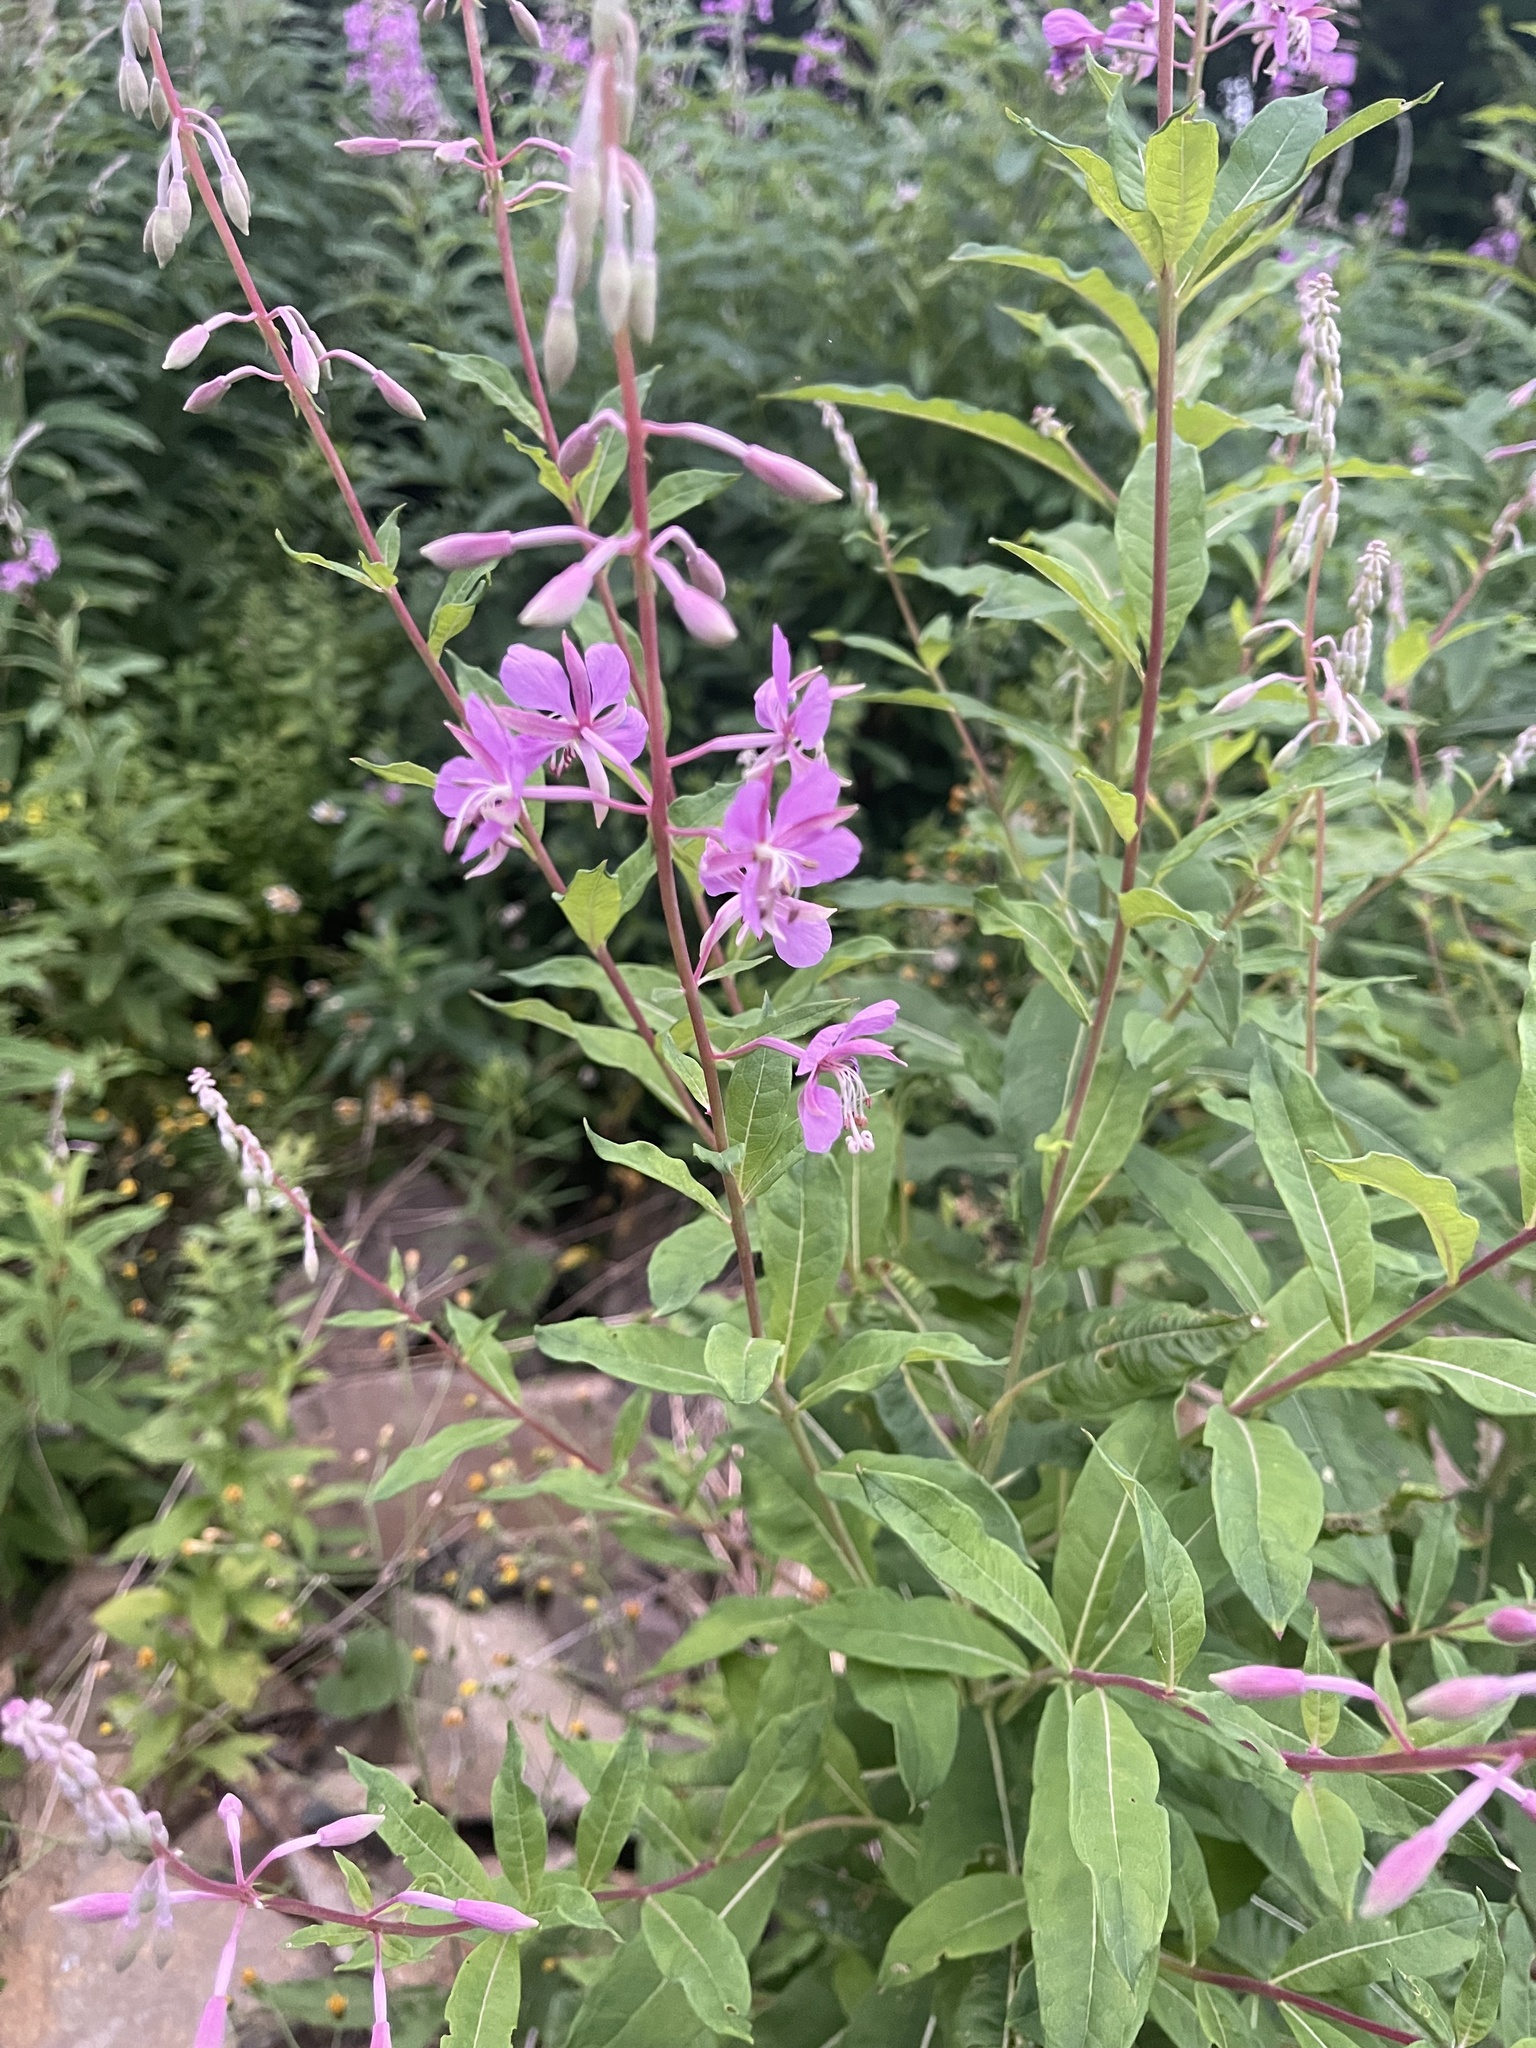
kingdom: Plantae
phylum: Tracheophyta
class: Magnoliopsida
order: Myrtales
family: Onagraceae
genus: Chamaenerion
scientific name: Chamaenerion angustifolium
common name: Fireweed
